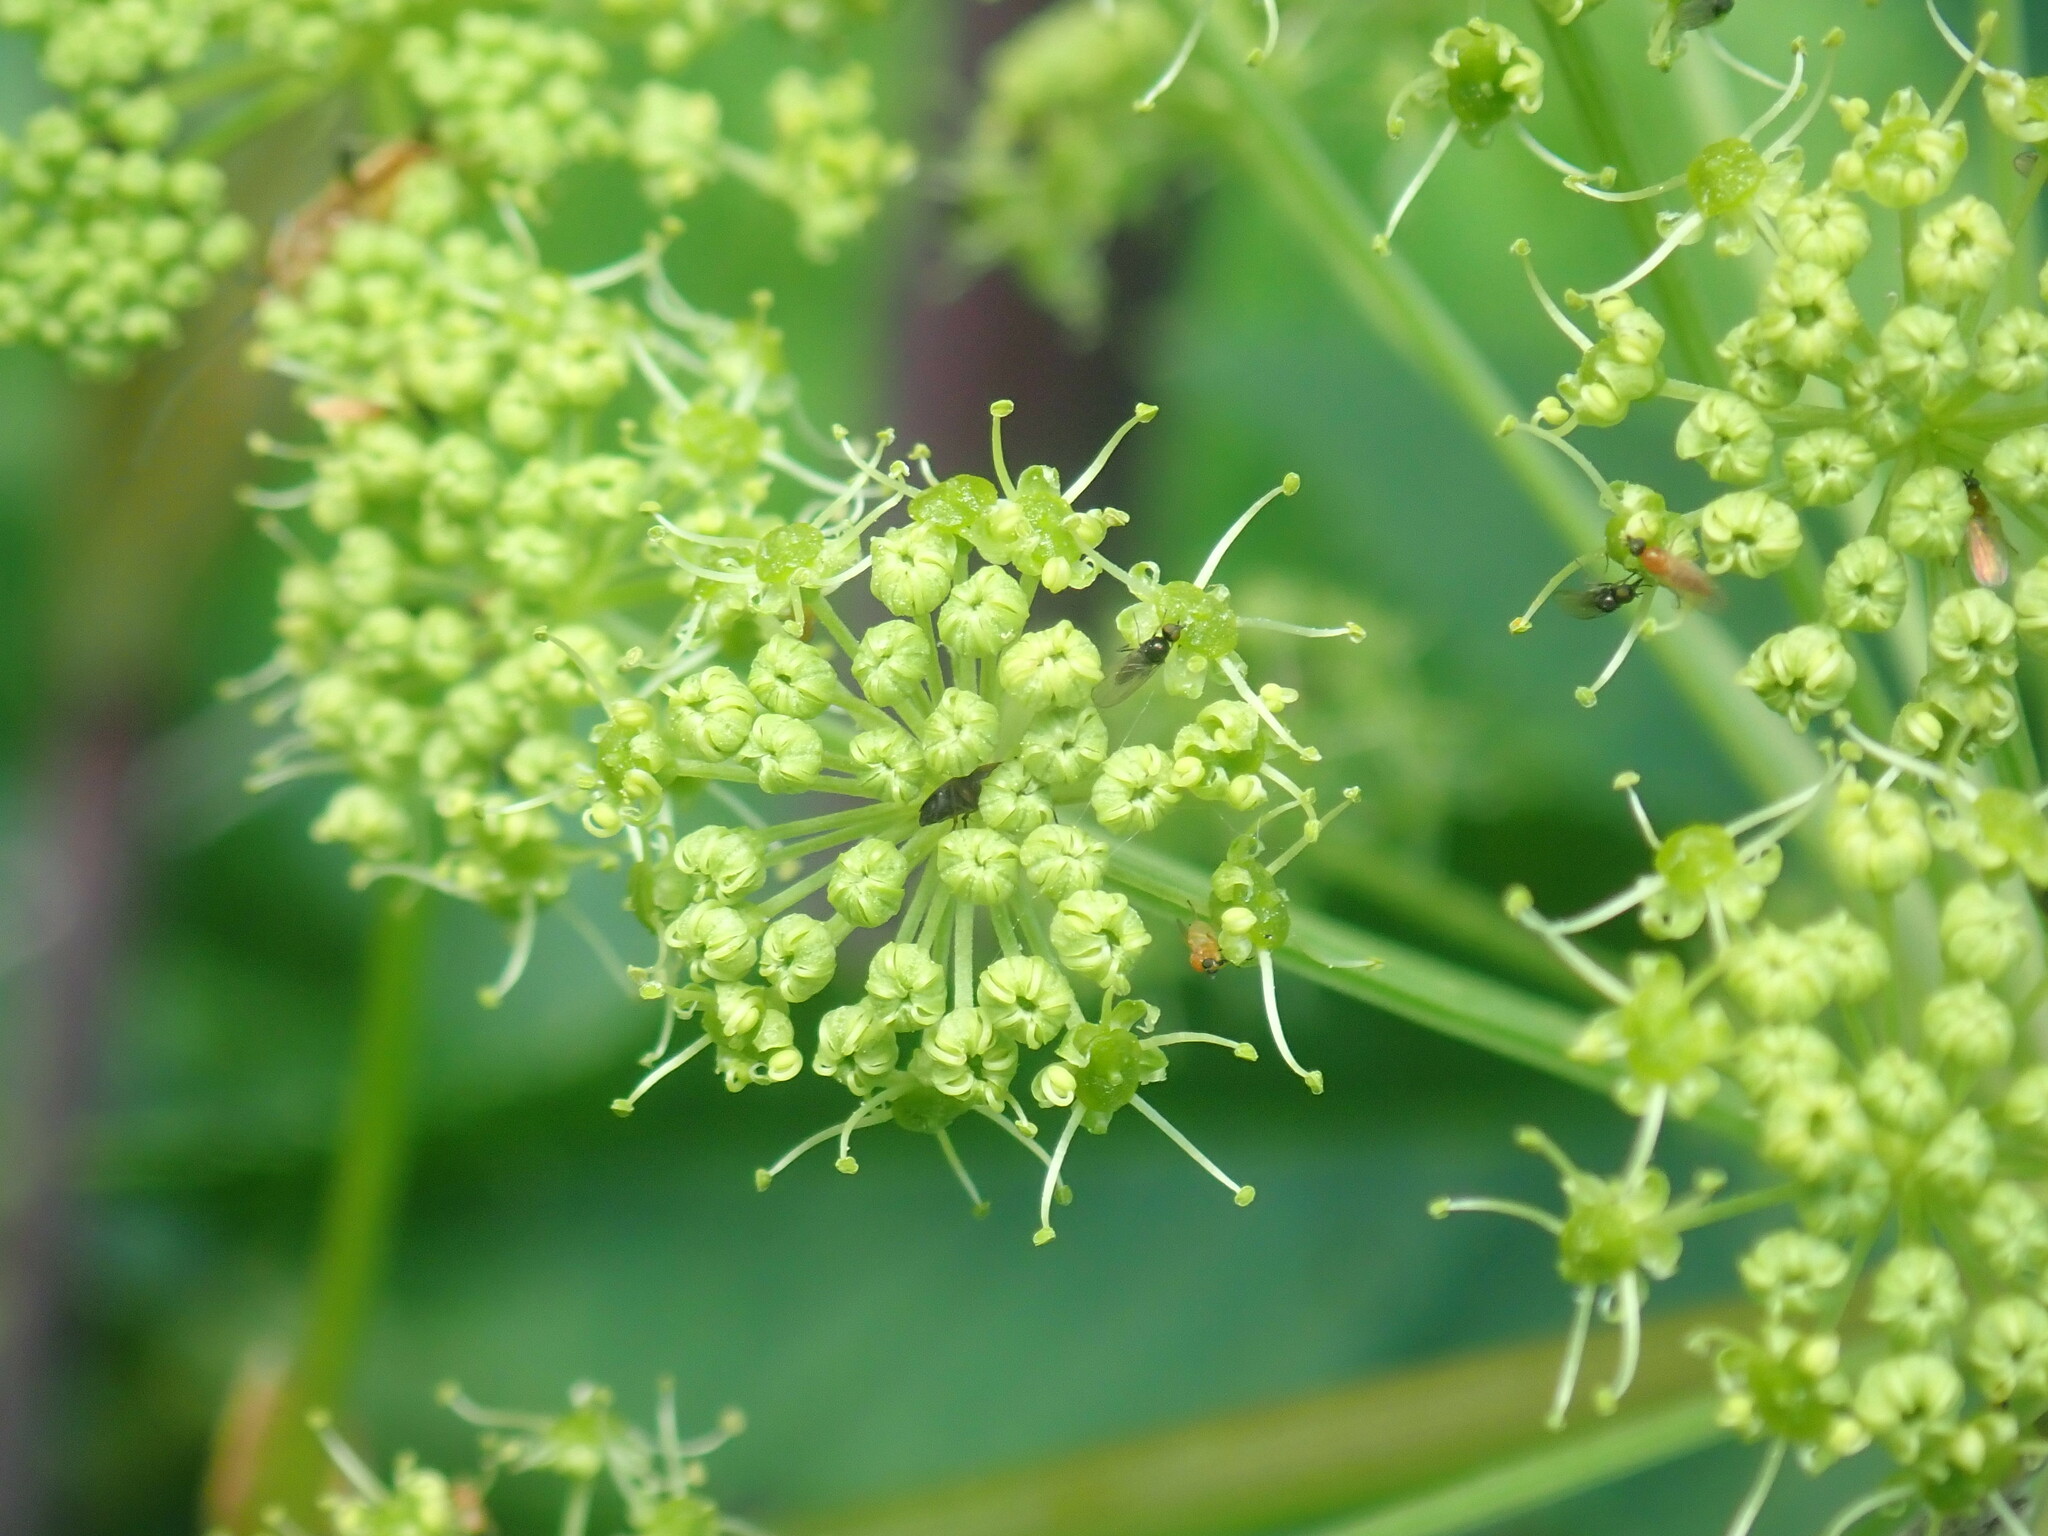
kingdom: Plantae
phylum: Tracheophyta
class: Magnoliopsida
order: Apiales
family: Apiaceae
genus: Angelica
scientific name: Angelica atropurpurea
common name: Great angelica
